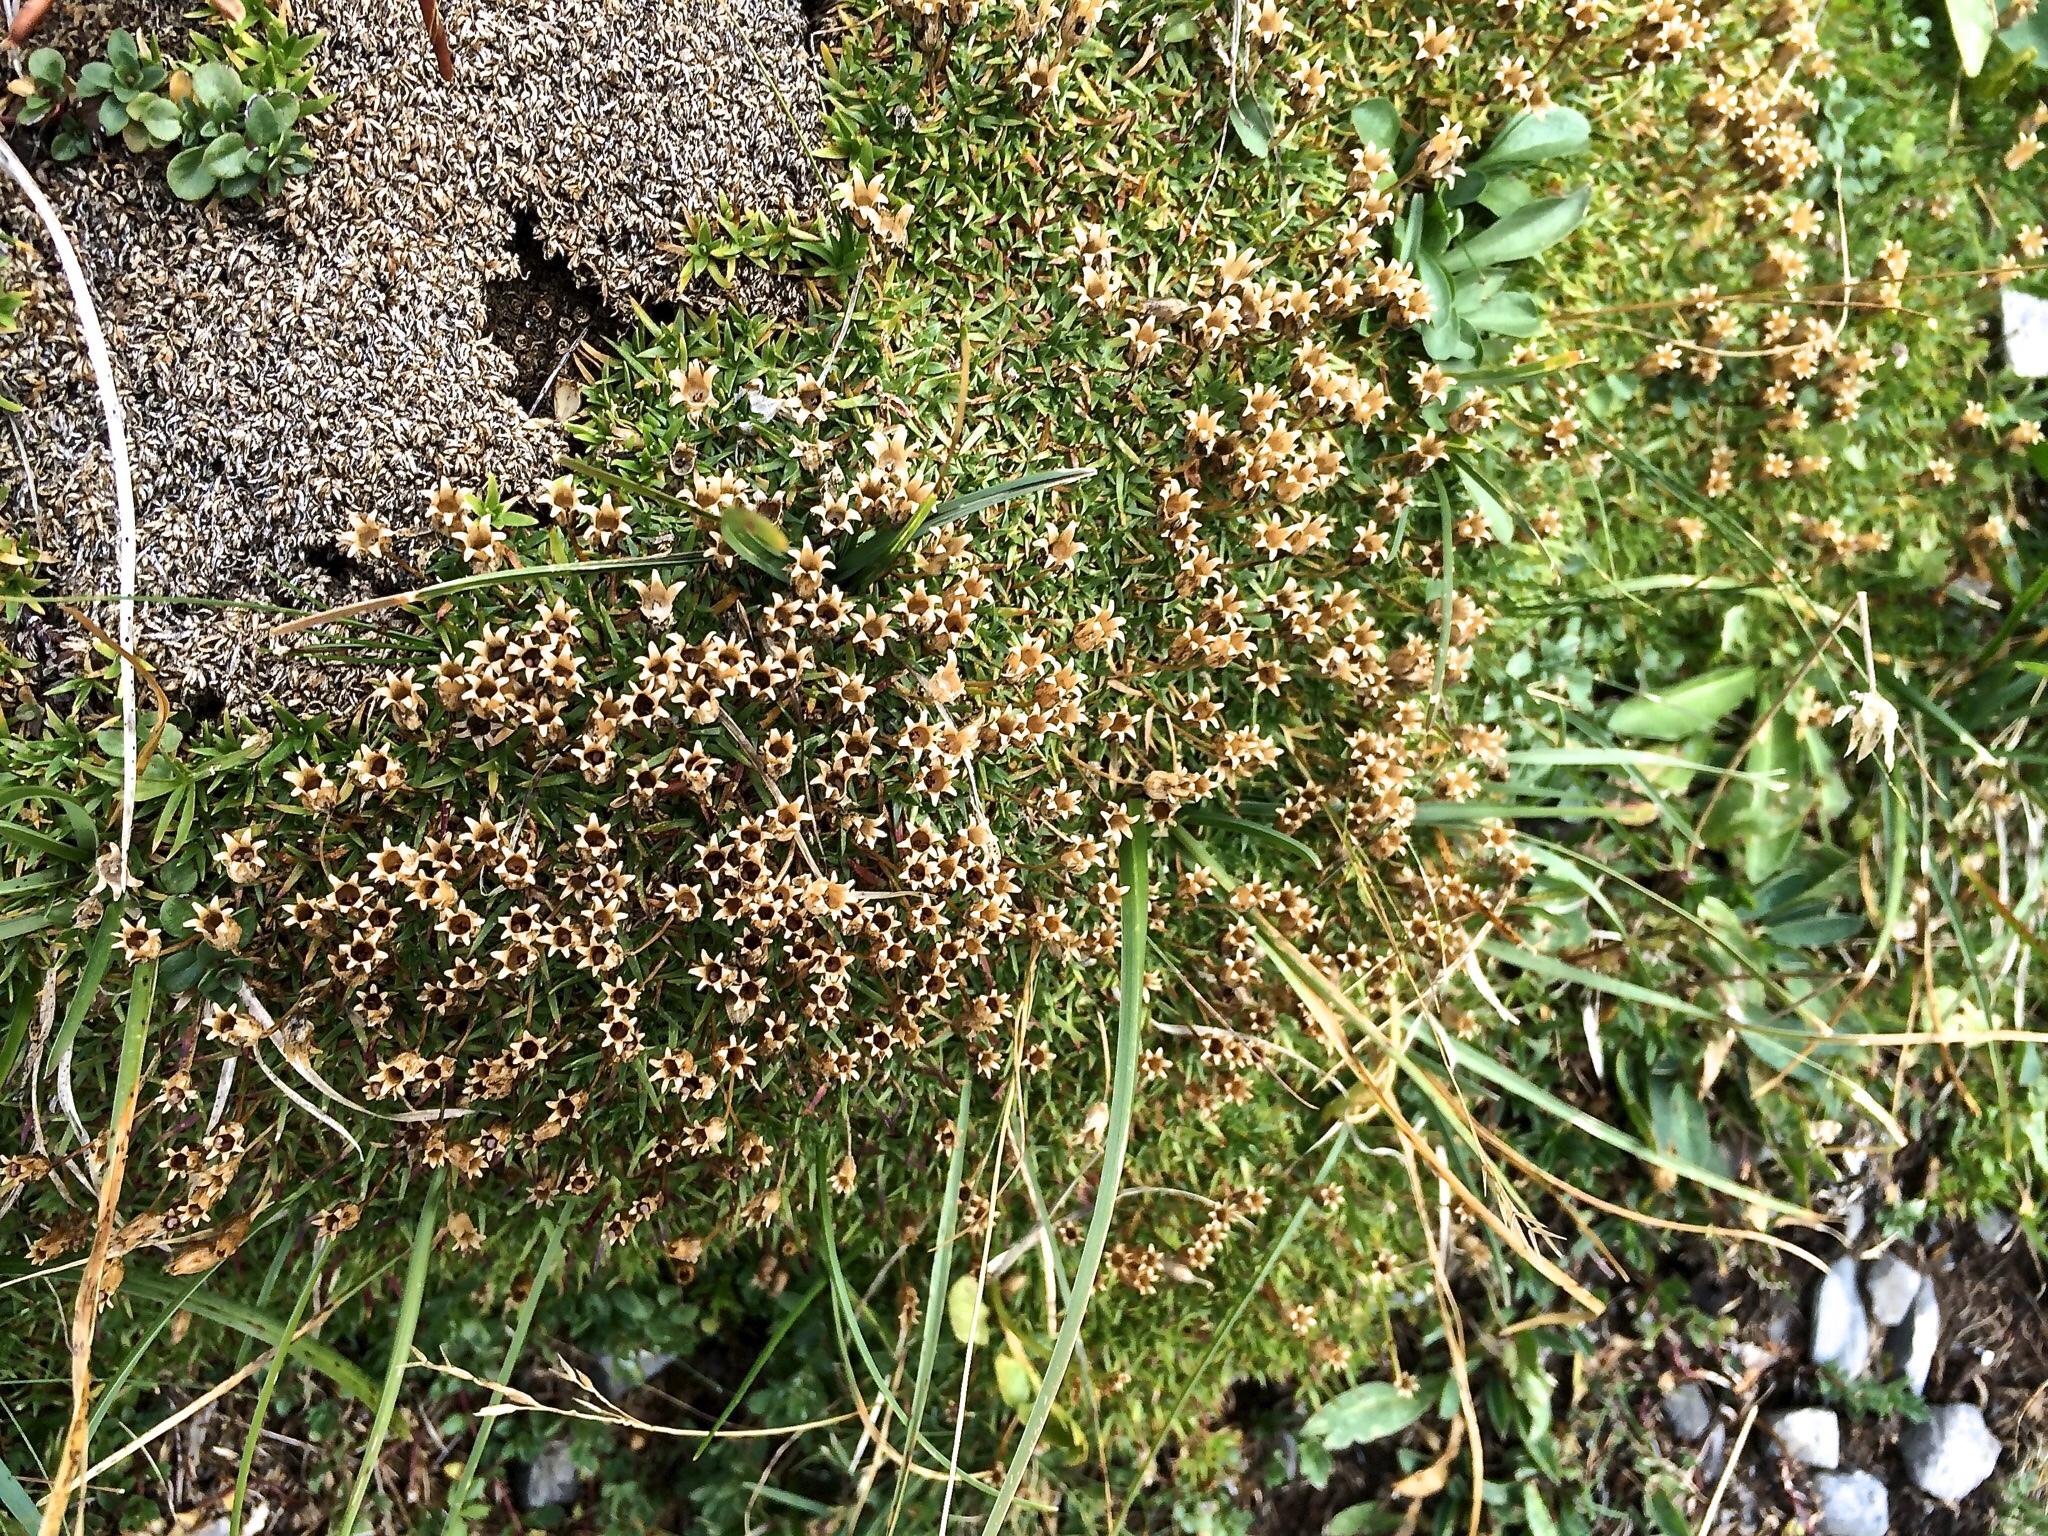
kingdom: Plantae
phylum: Tracheophyta
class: Magnoliopsida
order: Caryophyllales
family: Caryophyllaceae
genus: Silene
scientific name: Silene acaulis
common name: Moss campion
